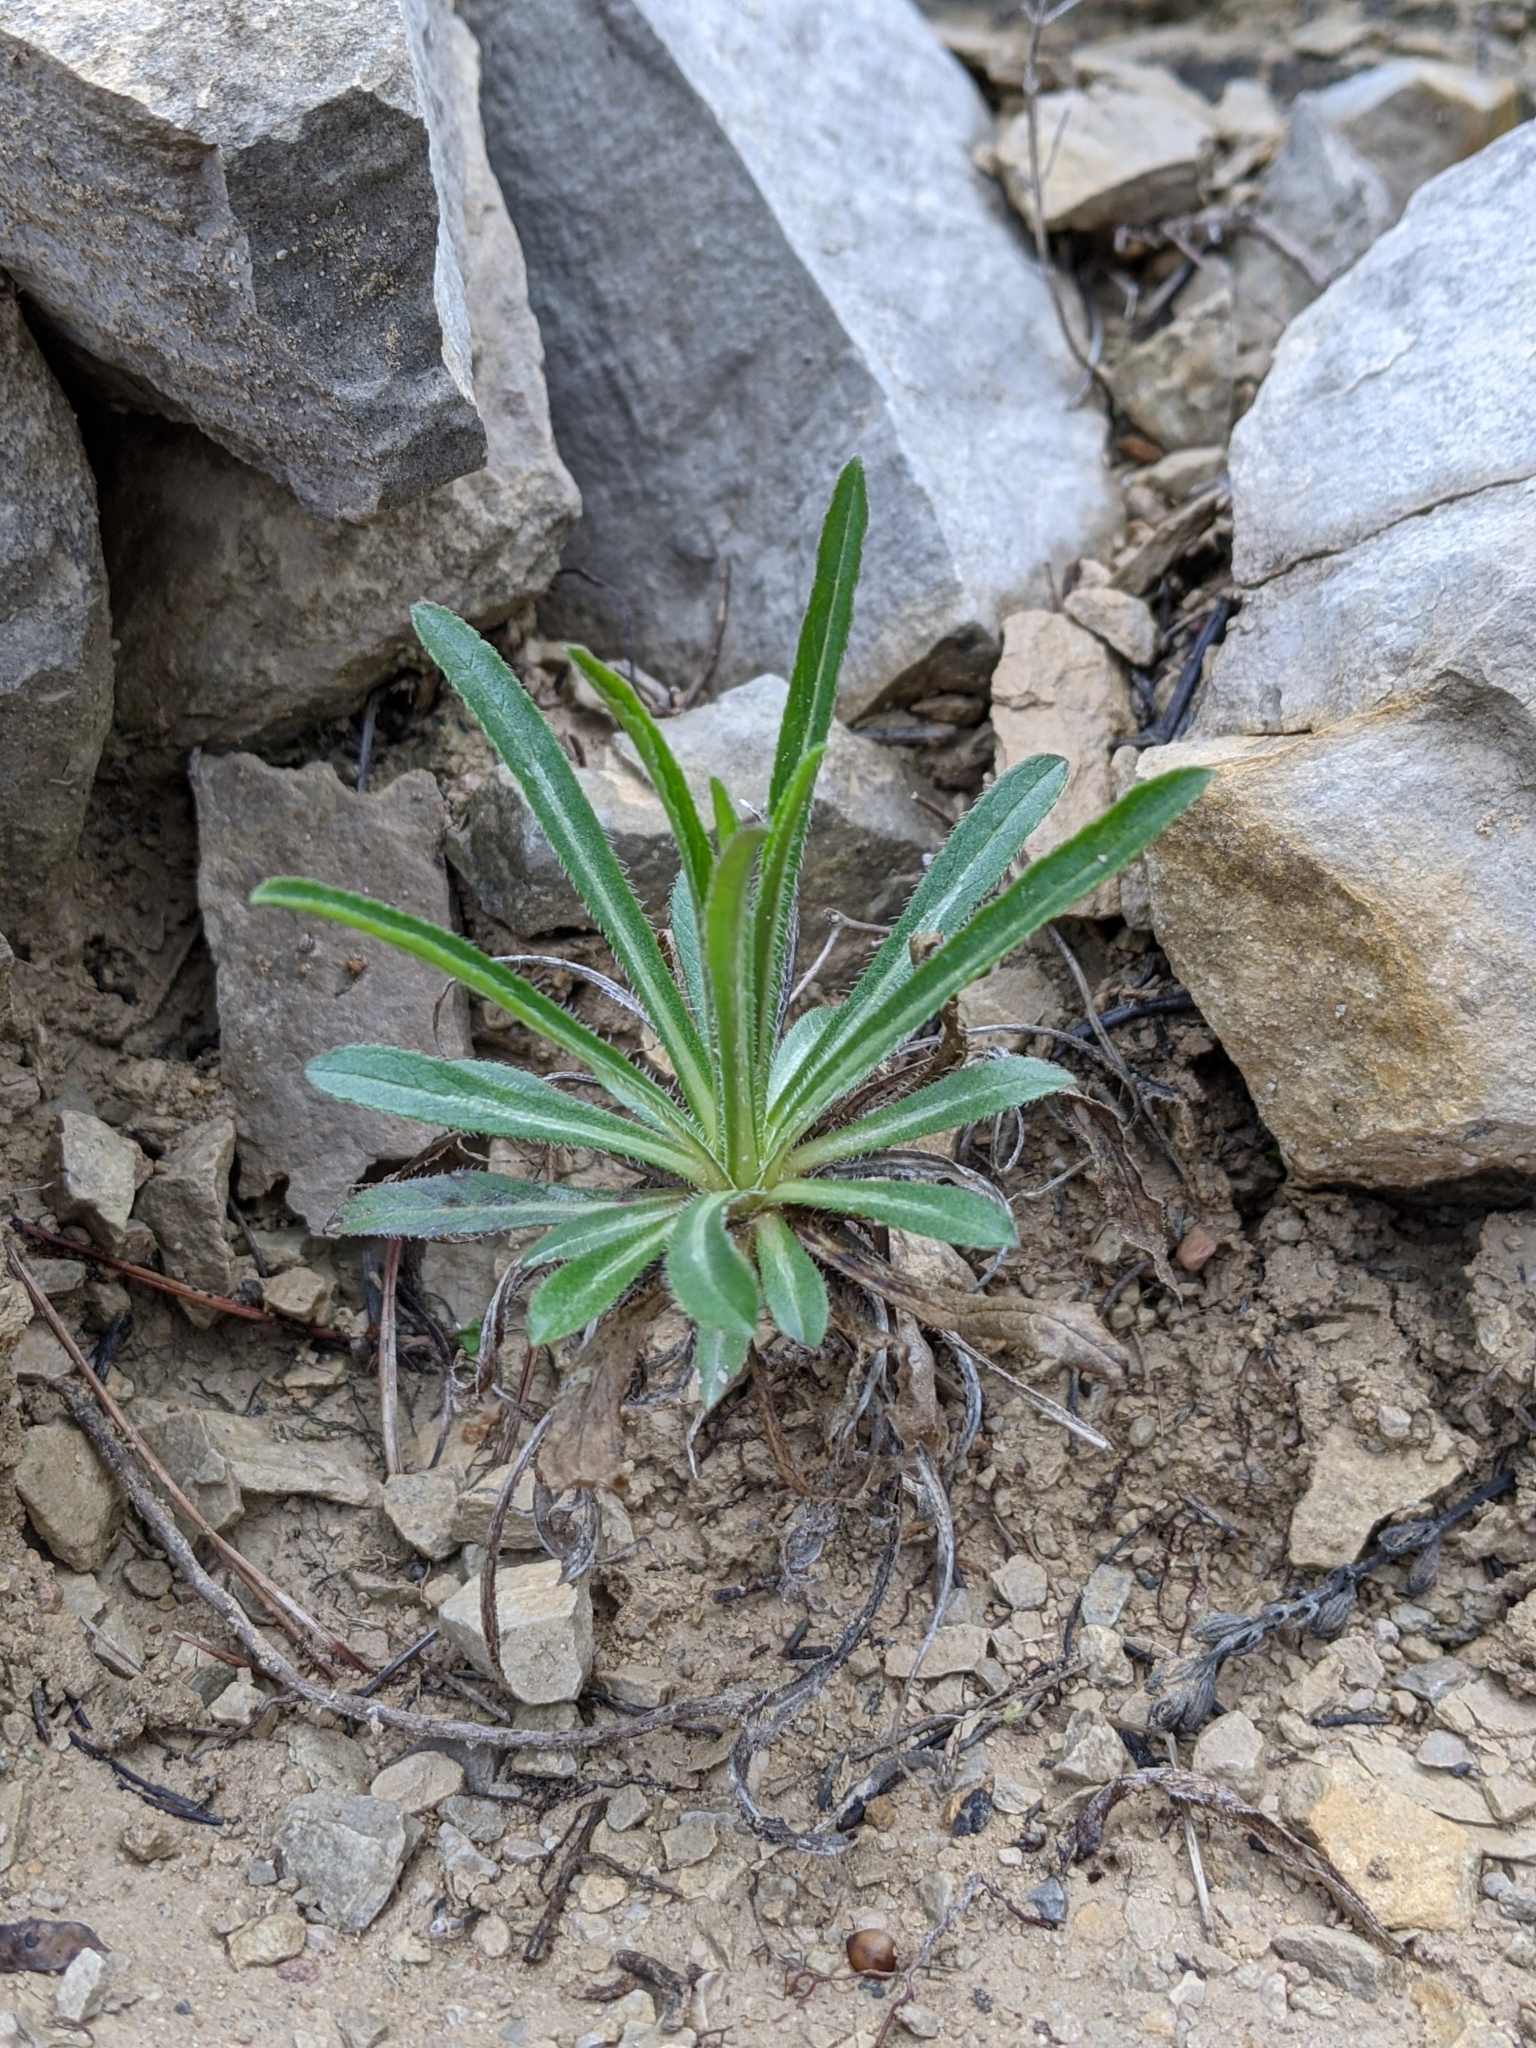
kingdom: Plantae
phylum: Tracheophyta
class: Magnoliopsida
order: Asterales
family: Campanulaceae
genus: Campanula
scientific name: Campanula speciosa
